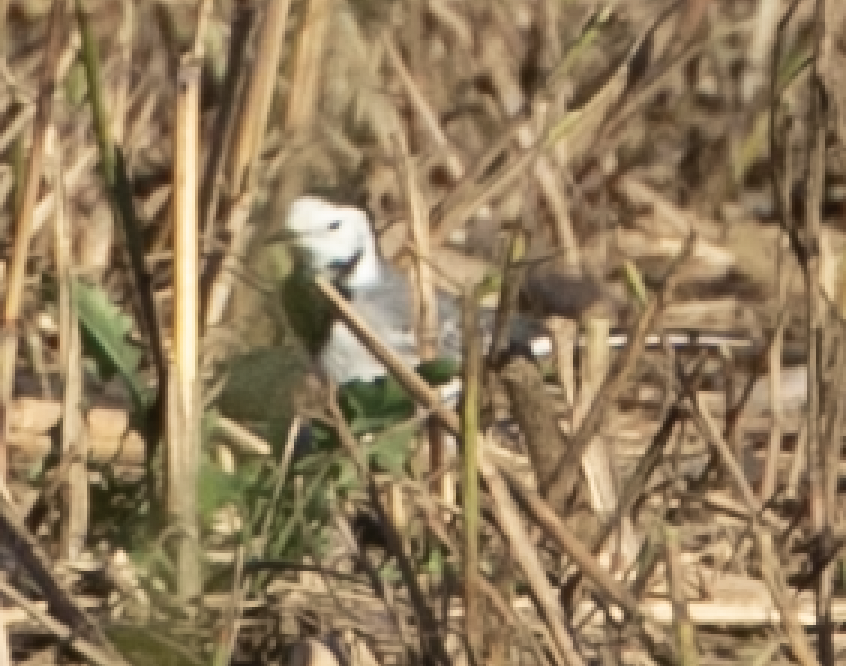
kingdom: Animalia
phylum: Chordata
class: Aves
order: Passeriformes
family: Motacillidae
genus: Motacilla
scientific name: Motacilla alba
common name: White wagtail
